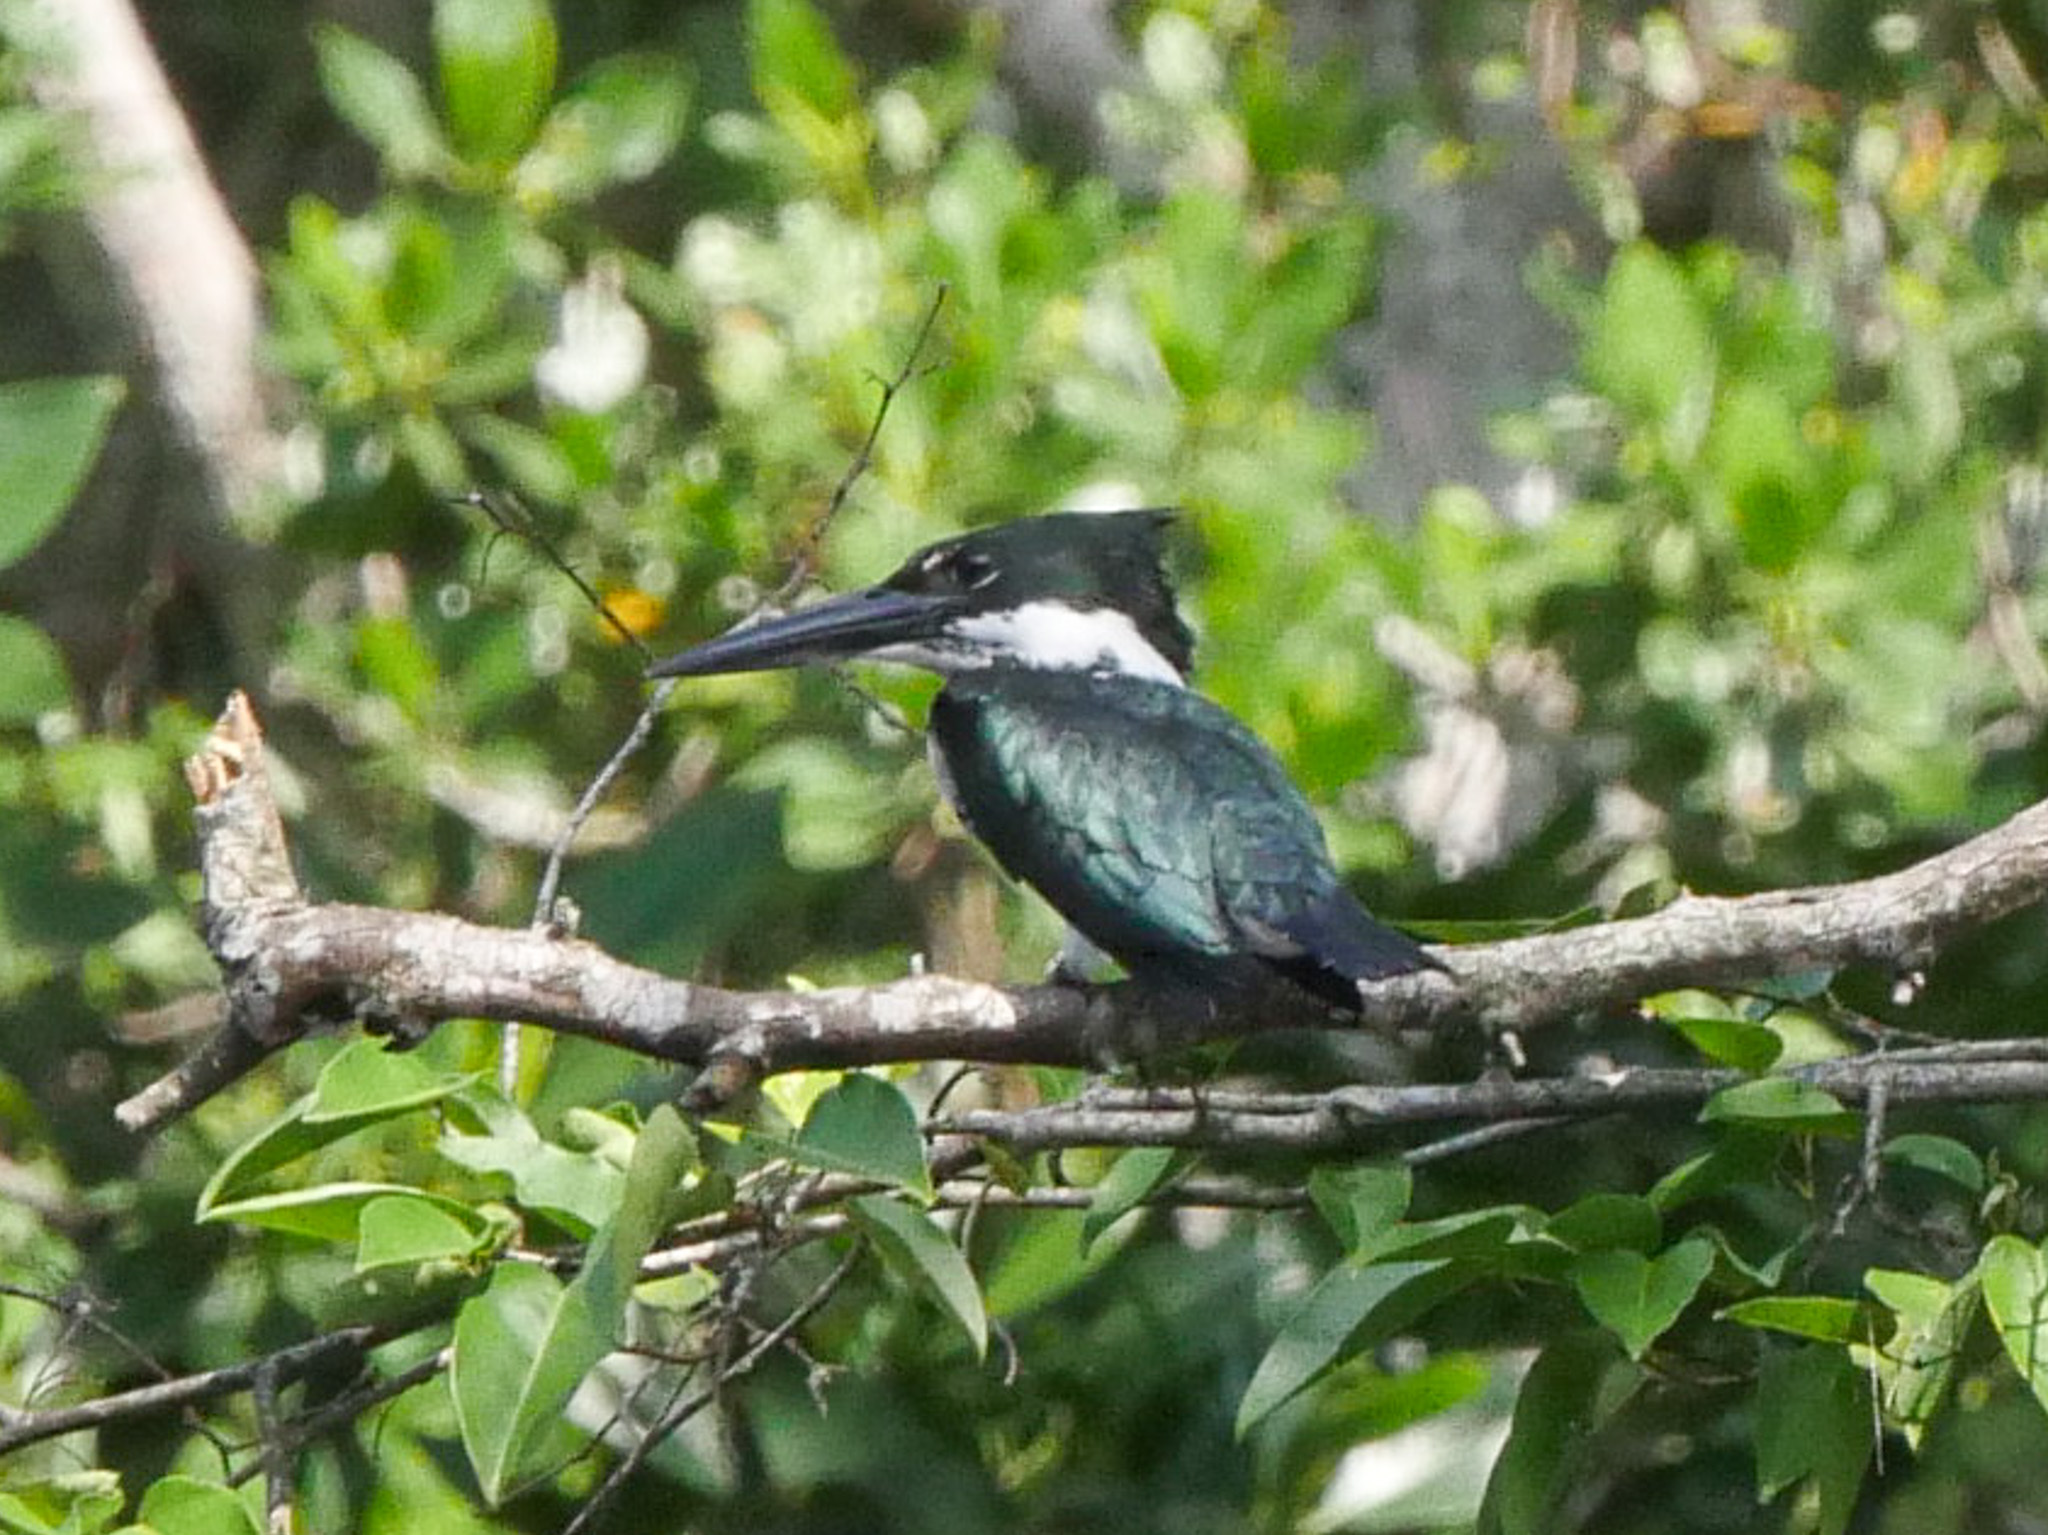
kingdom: Animalia
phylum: Chordata
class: Aves
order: Coraciiformes
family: Alcedinidae
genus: Chloroceryle
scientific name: Chloroceryle amazona
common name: Amazon kingfisher
